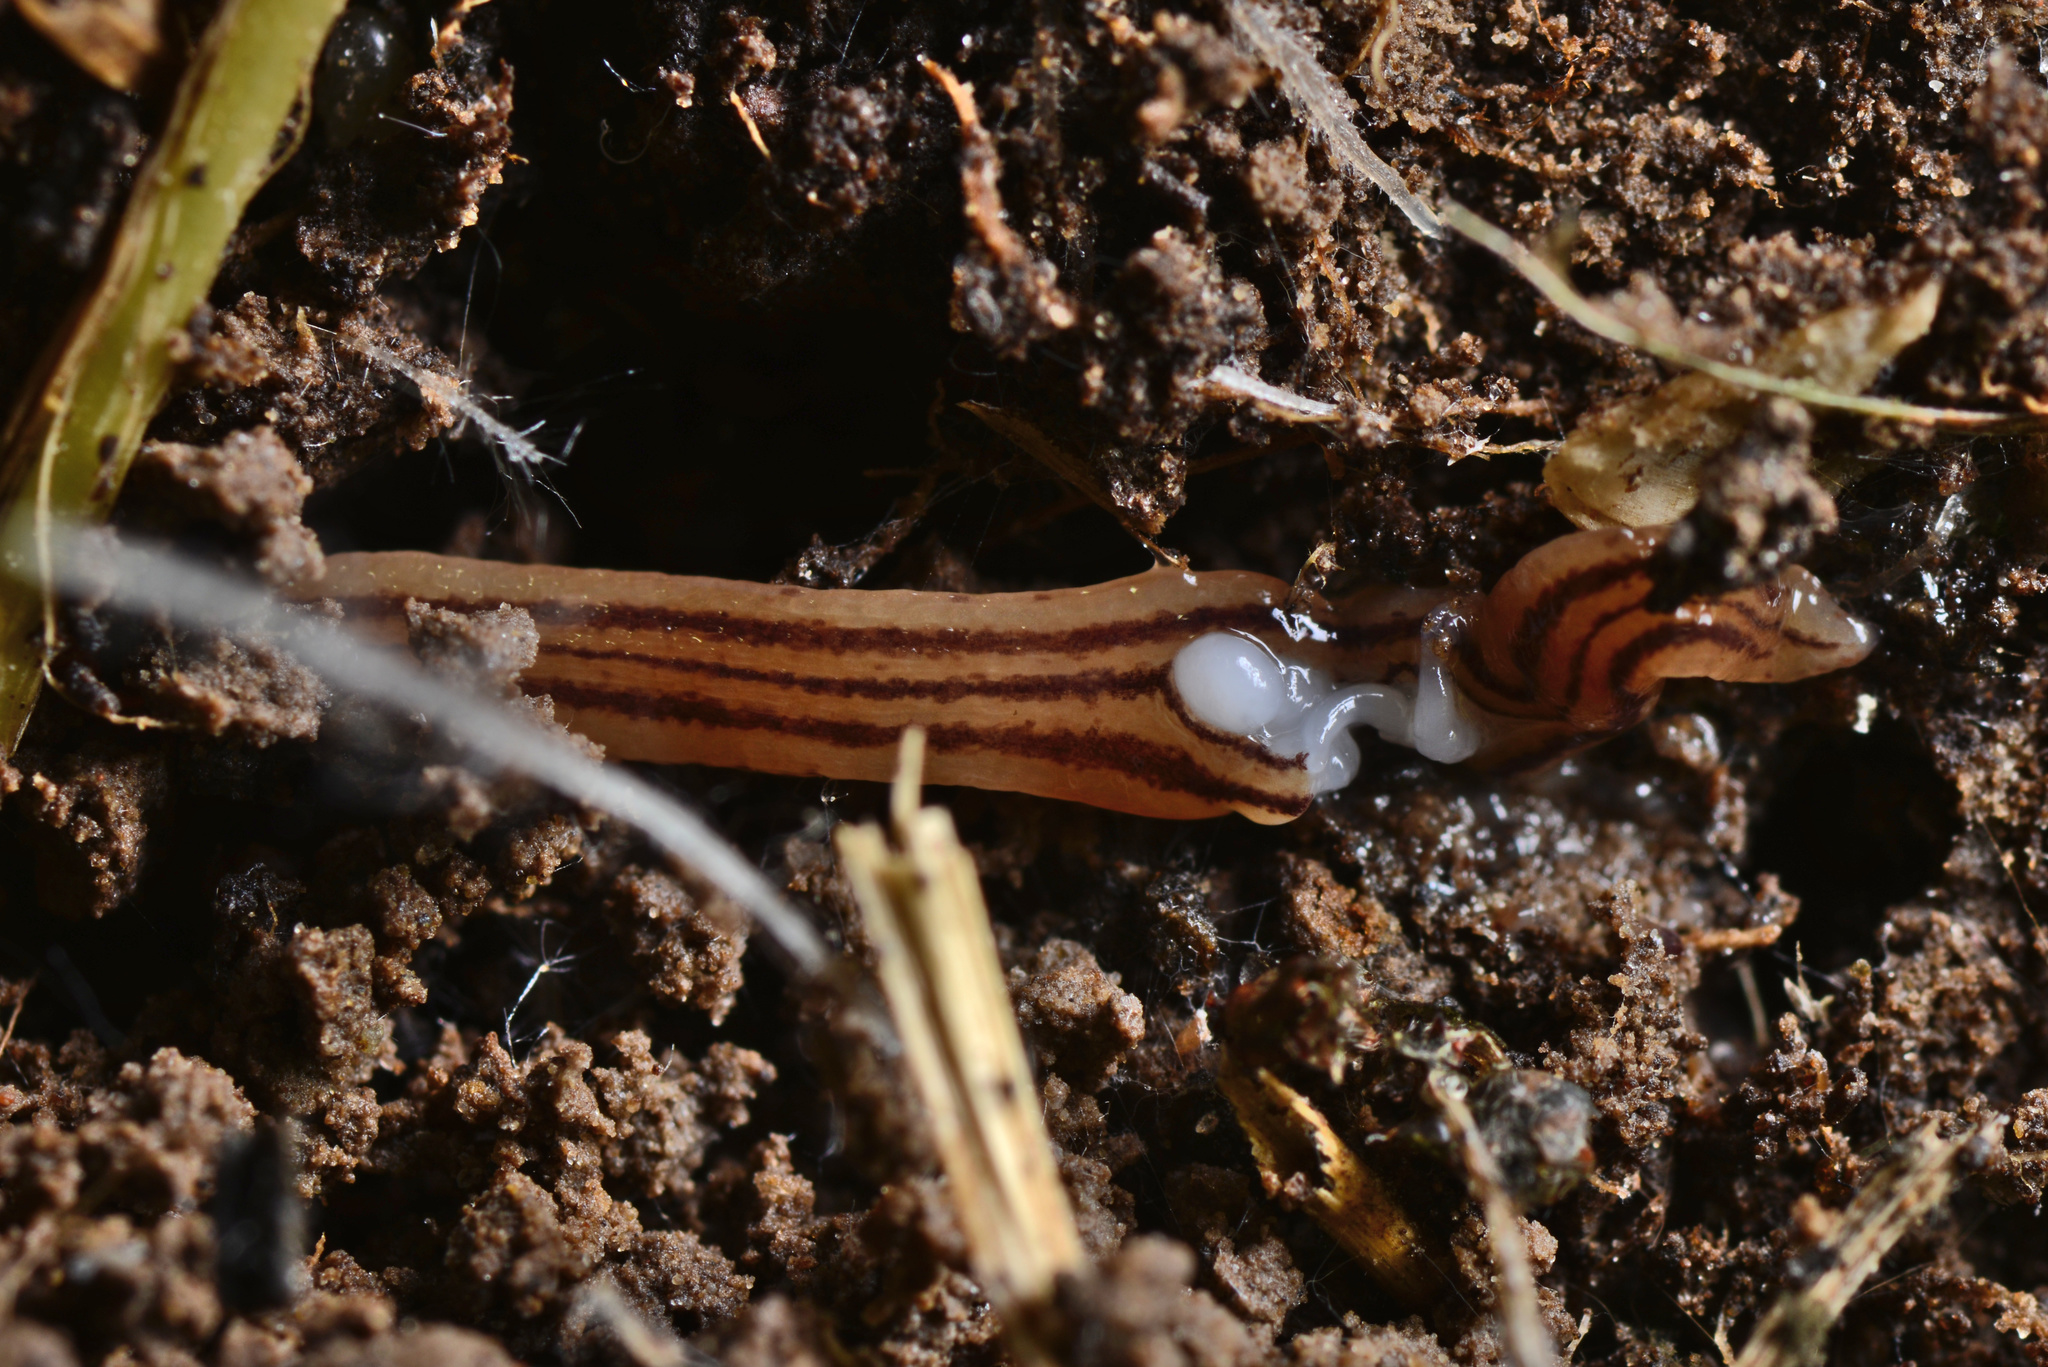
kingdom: Animalia
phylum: Platyhelminthes
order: Tricladida
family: Geoplanidae
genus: Artioposthia
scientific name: Artioposthia
